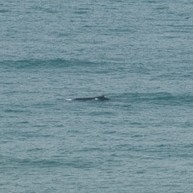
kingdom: Animalia
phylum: Chordata
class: Mammalia
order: Cetacea
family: Balaenopteridae
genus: Megaptera
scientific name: Megaptera novaeangliae
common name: Humpback whale
